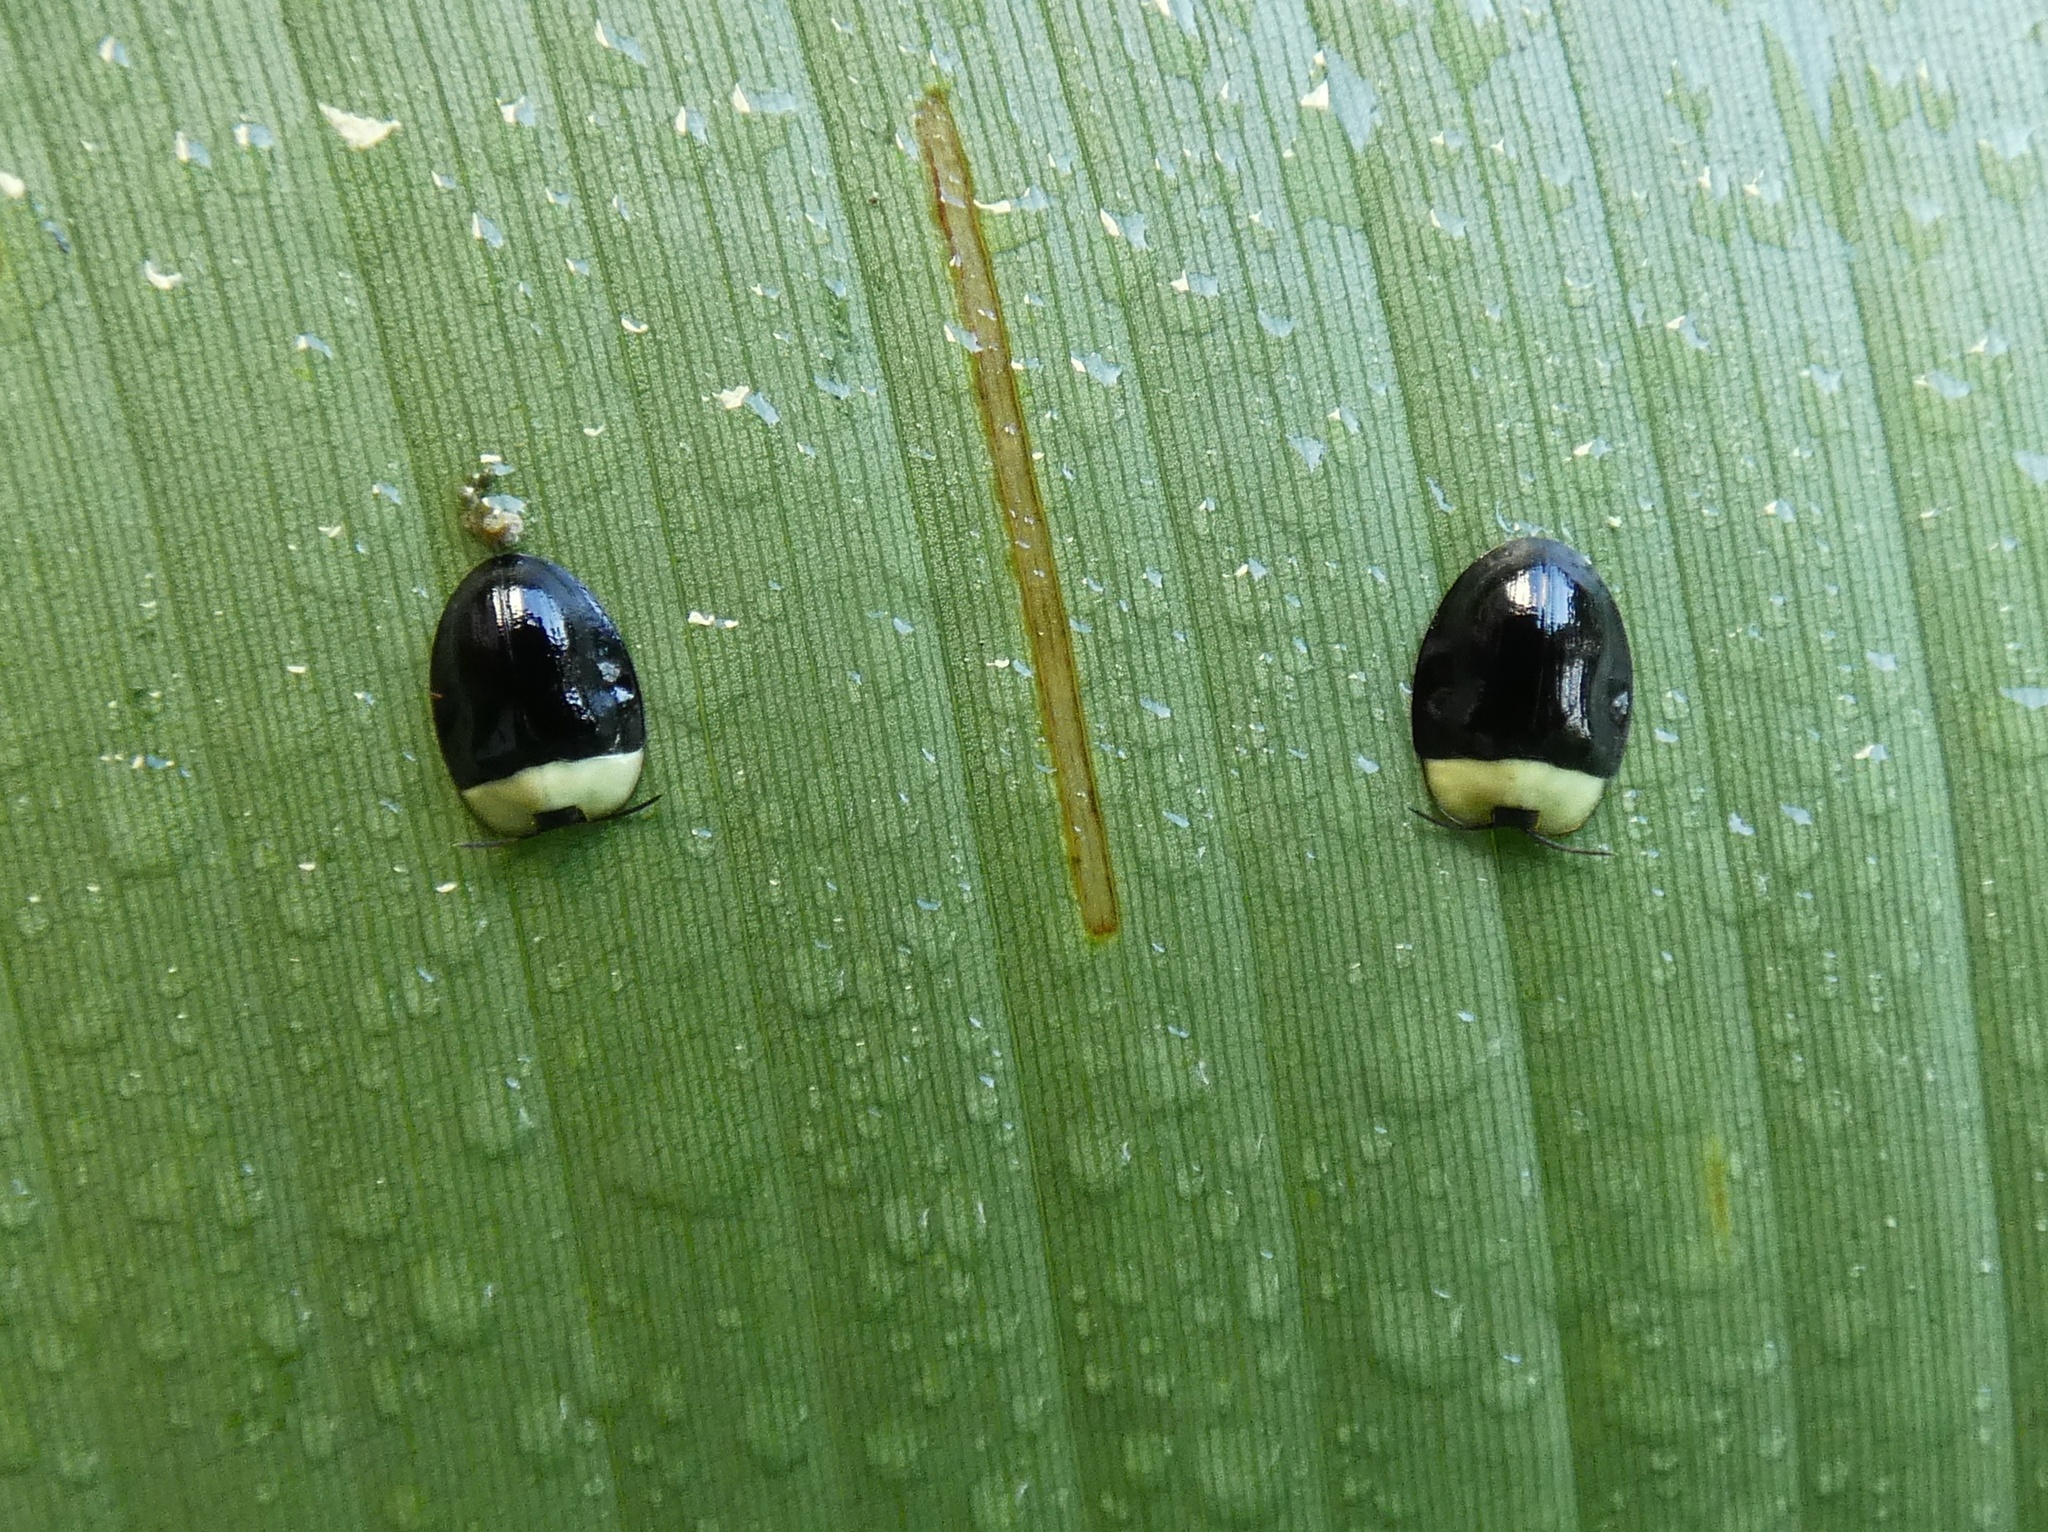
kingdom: Animalia
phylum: Arthropoda
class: Insecta
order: Coleoptera
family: Chrysomelidae
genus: Imatidium
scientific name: Imatidium thoracicum
